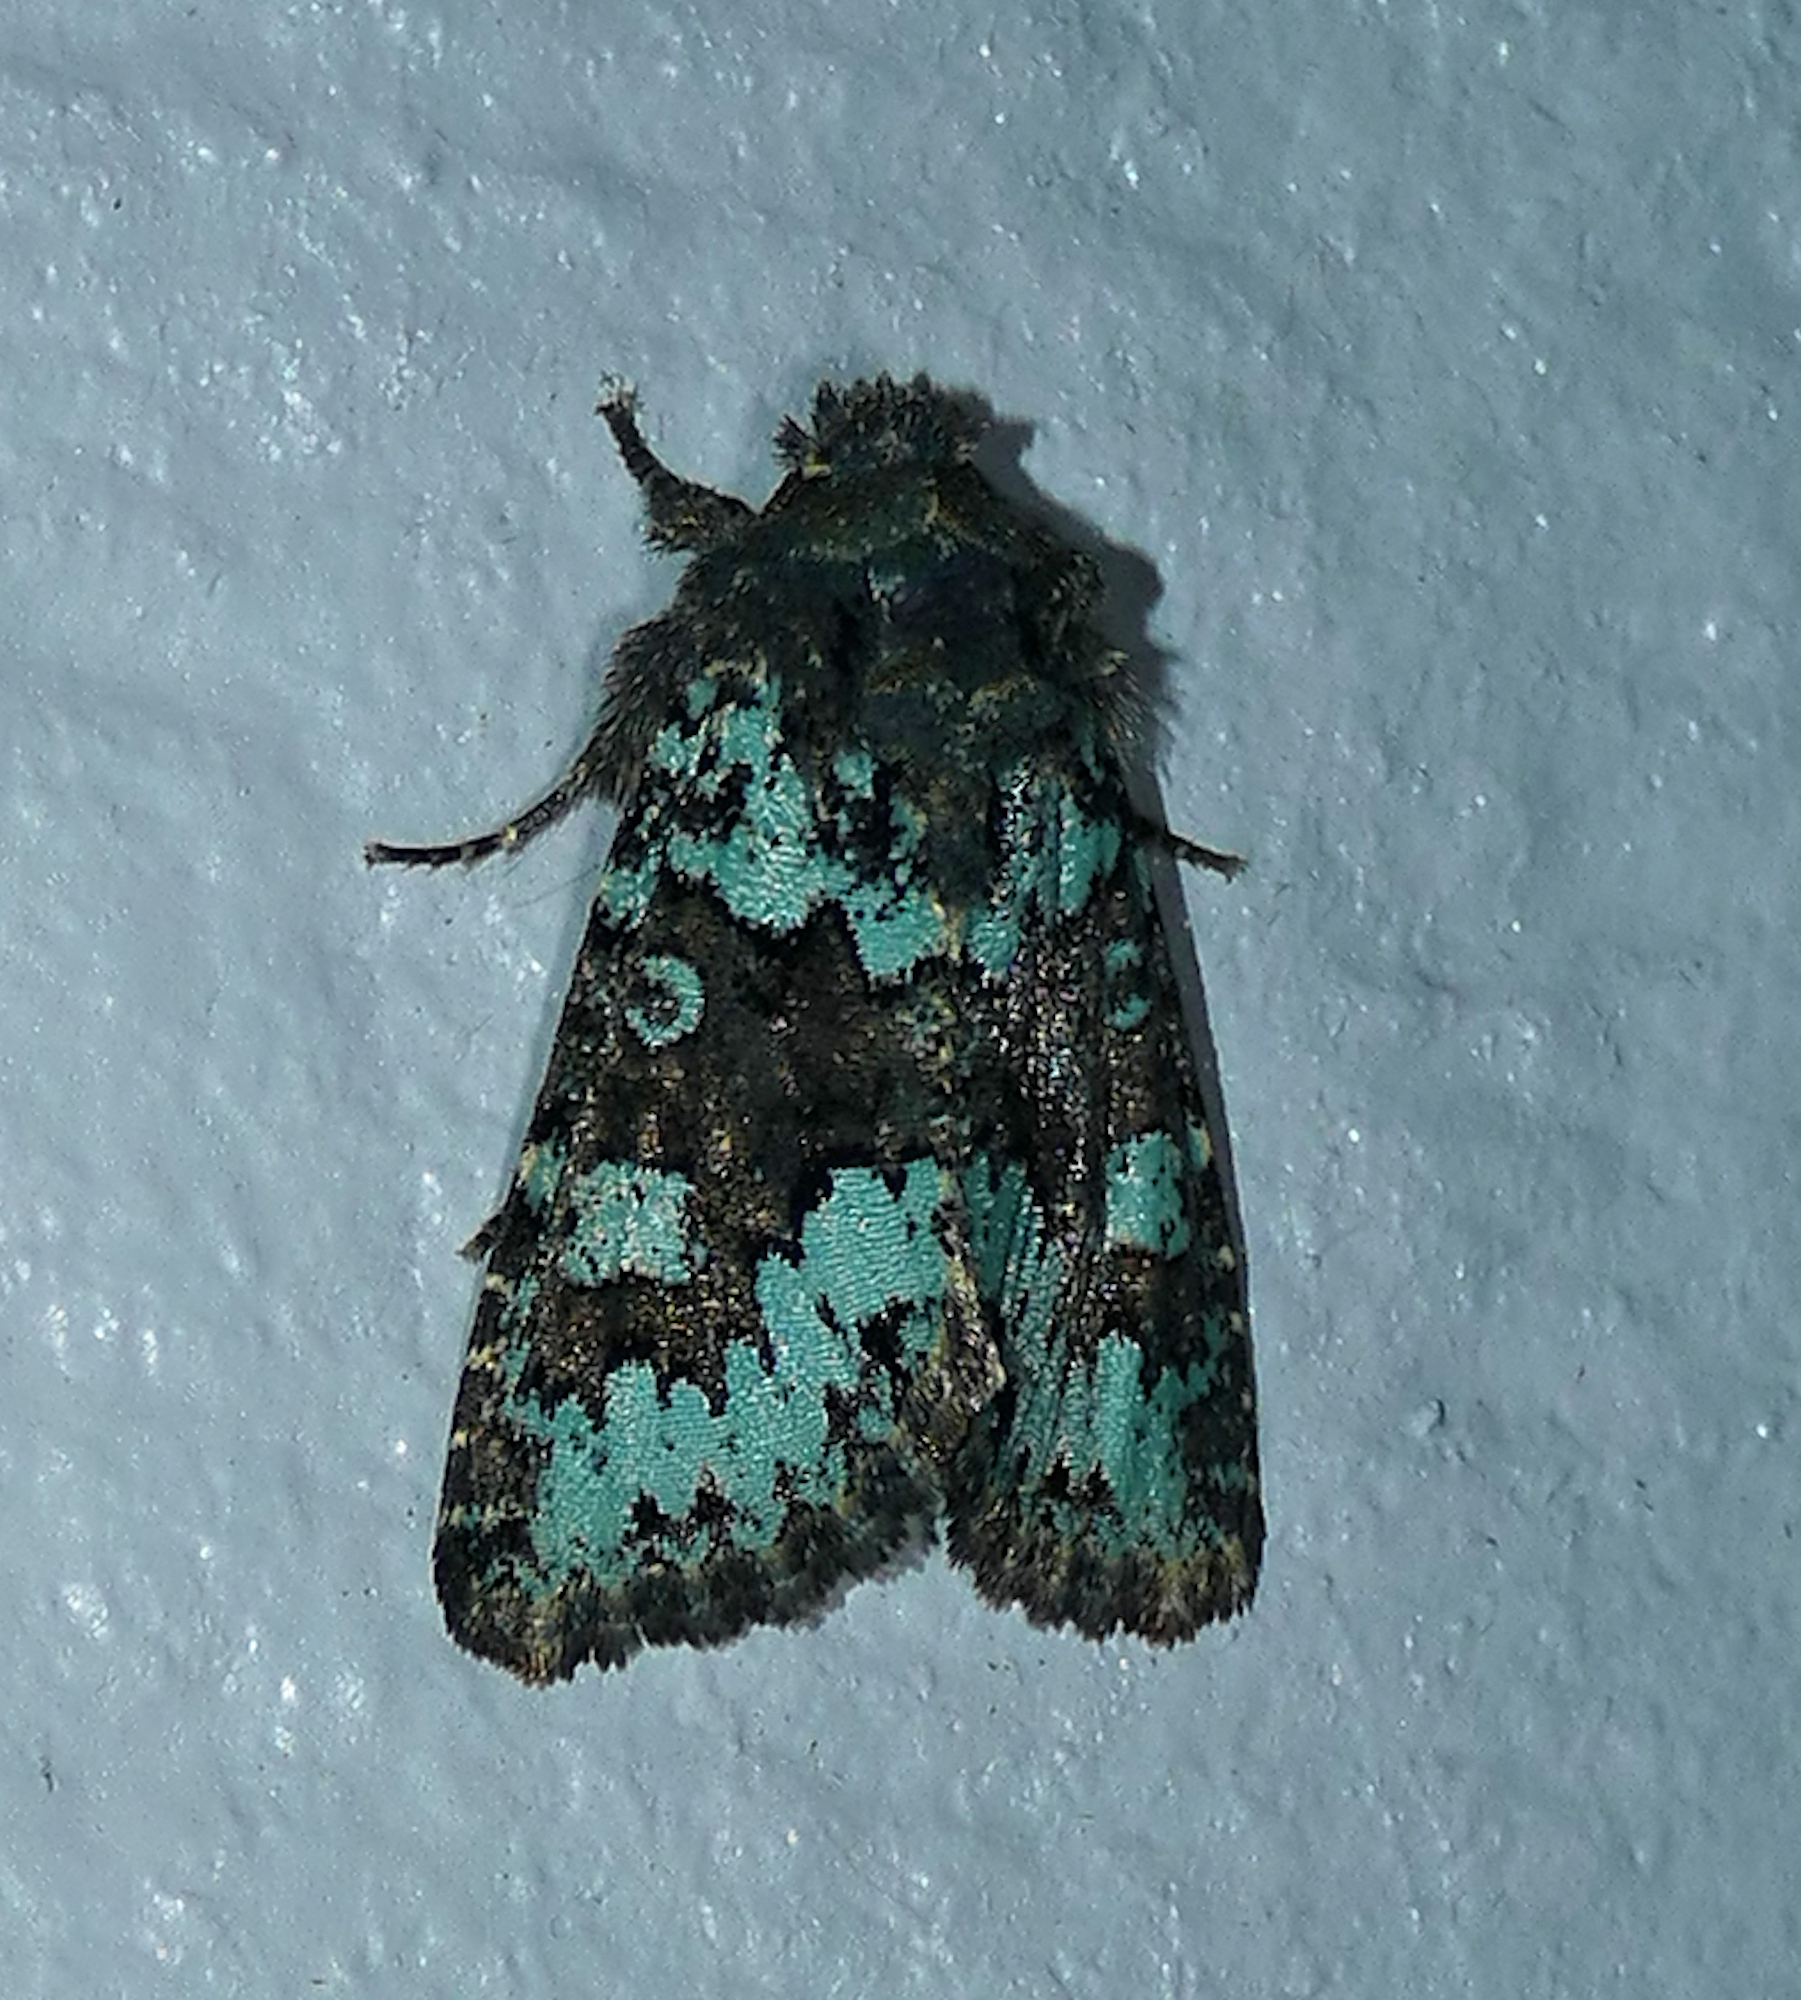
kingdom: Animalia
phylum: Arthropoda
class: Insecta
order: Lepidoptera
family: Noctuidae
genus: Paramiana
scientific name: Paramiana perissa
